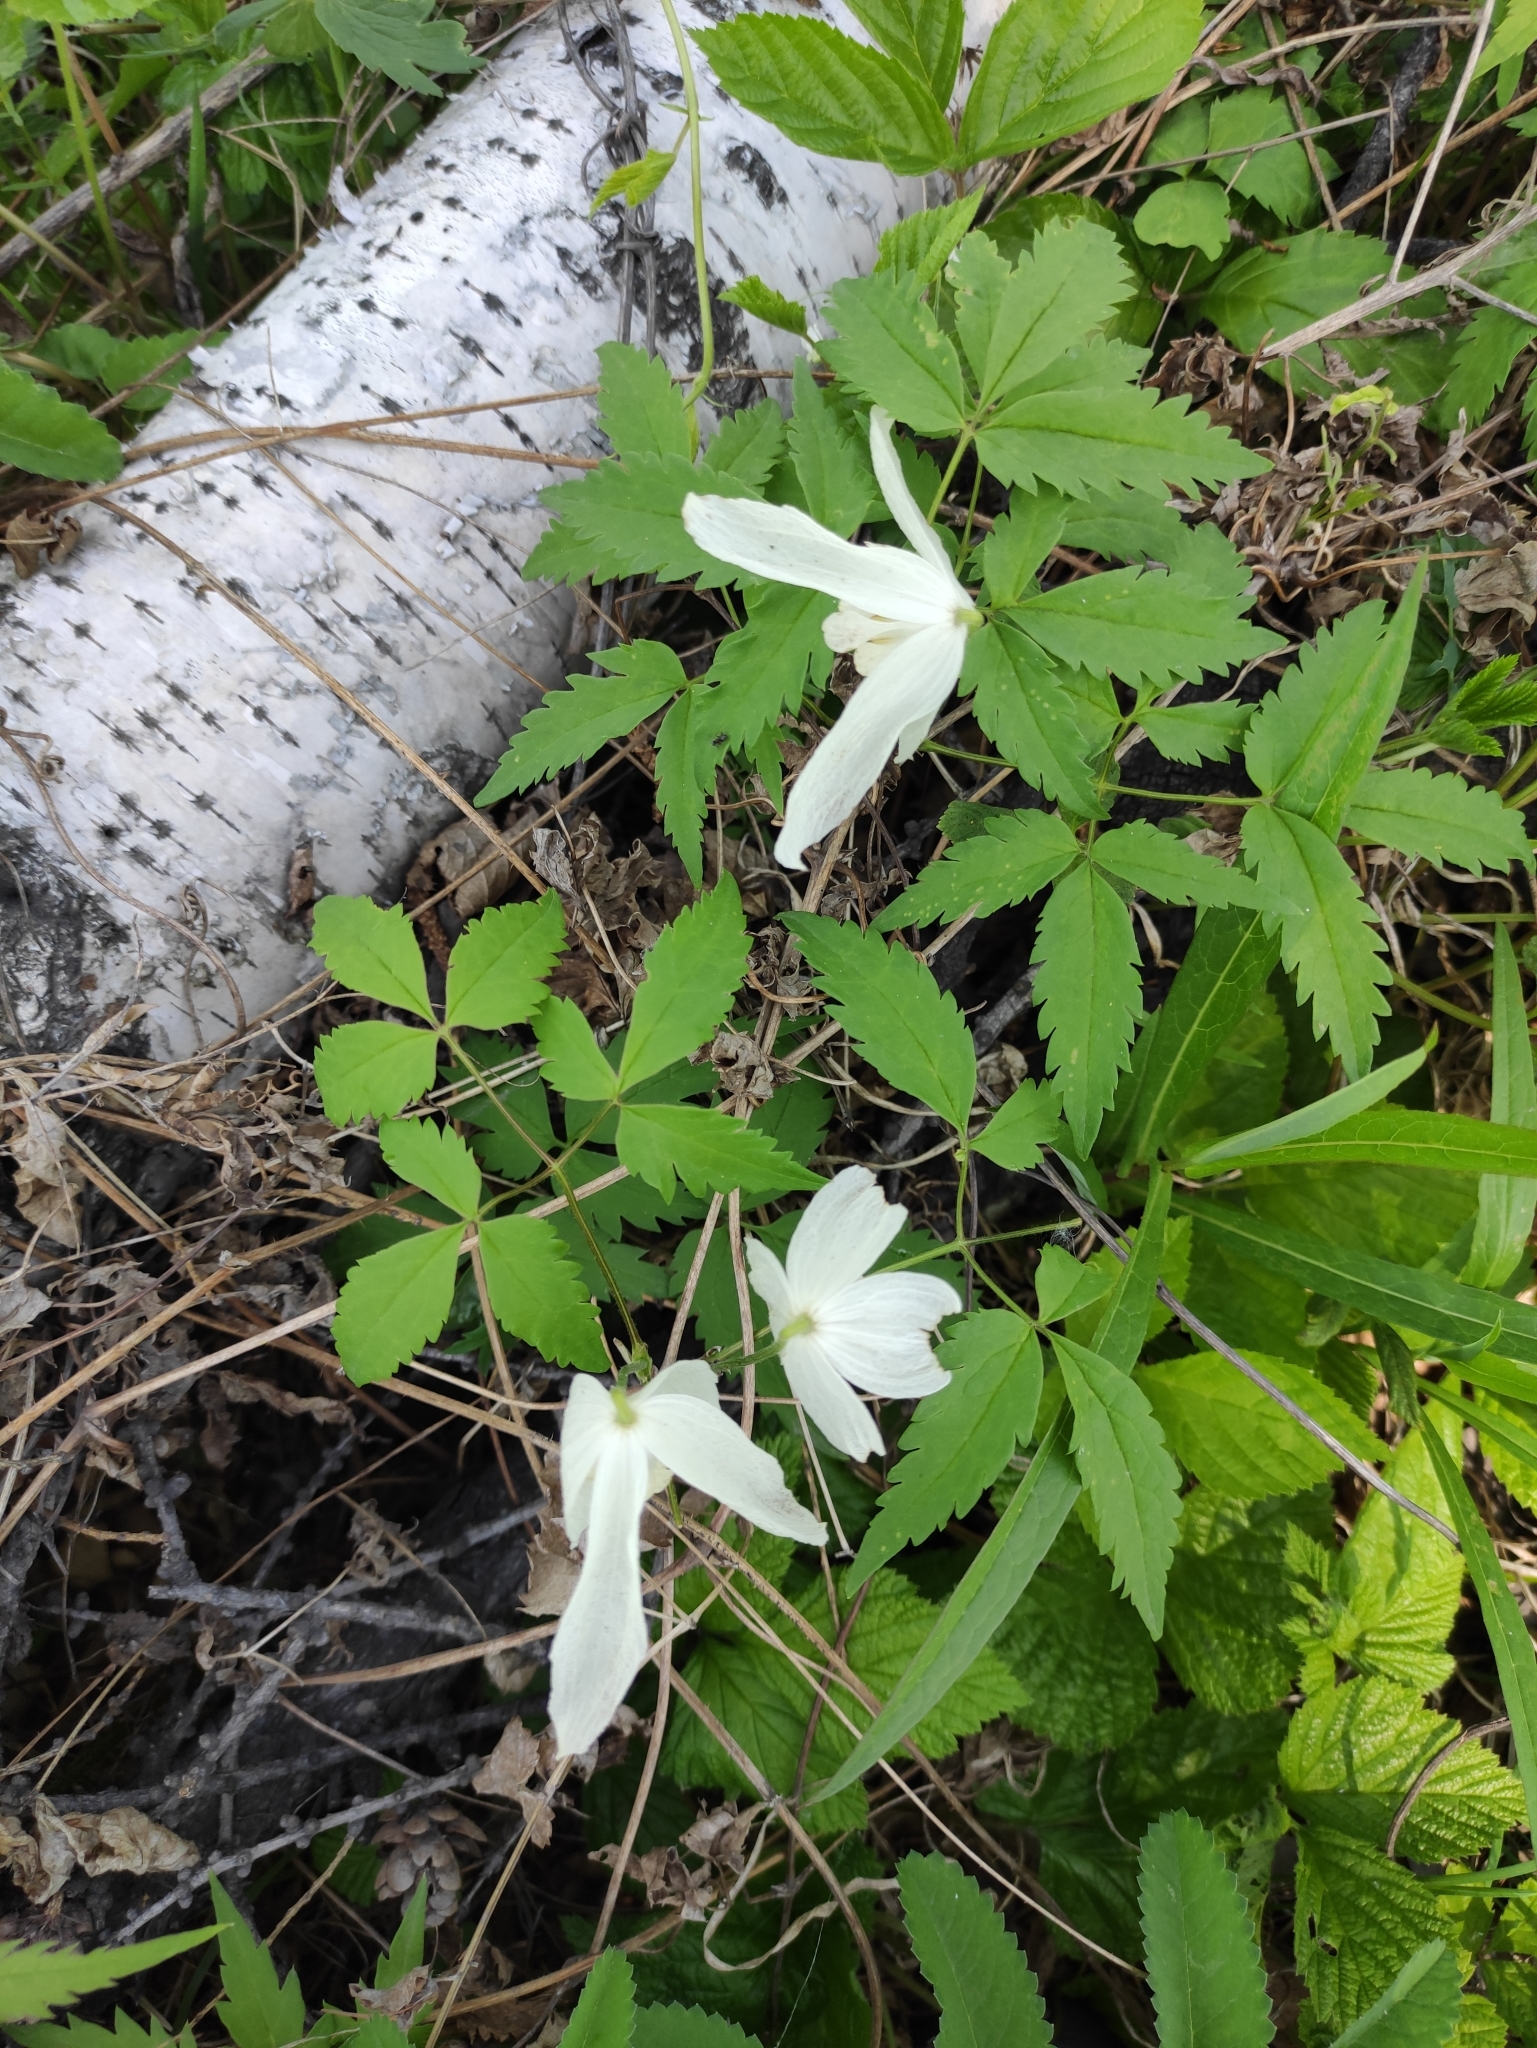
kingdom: Plantae
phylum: Tracheophyta
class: Magnoliopsida
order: Ranunculales
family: Ranunculaceae
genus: Clematis
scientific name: Clematis sibirica
